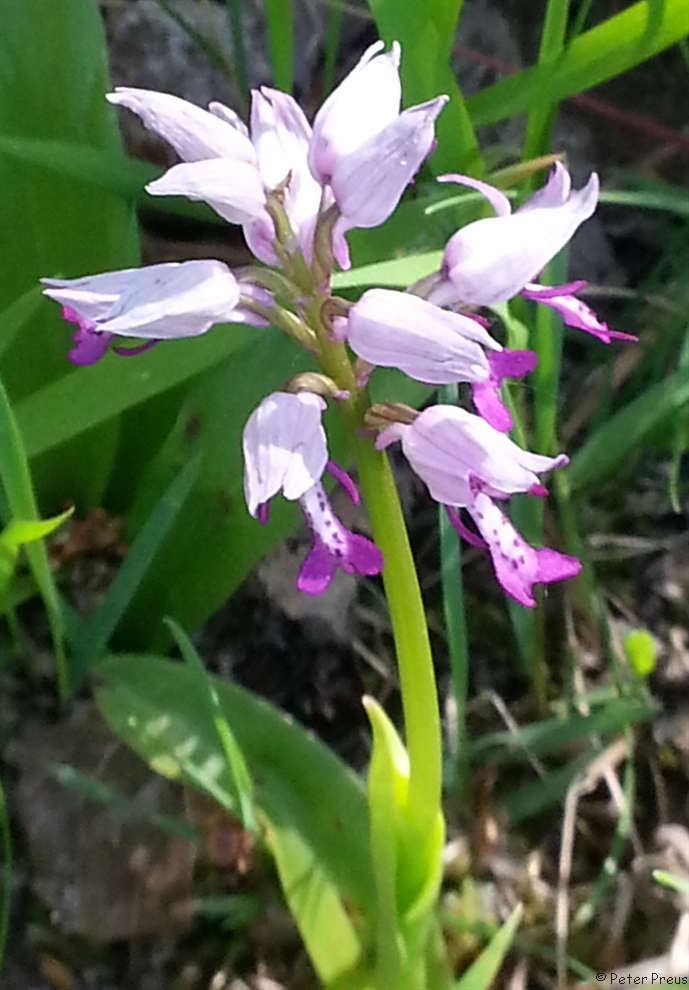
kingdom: Plantae
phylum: Tracheophyta
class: Liliopsida
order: Asparagales
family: Orchidaceae
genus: Orchis
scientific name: Orchis militaris
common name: Military orchid
